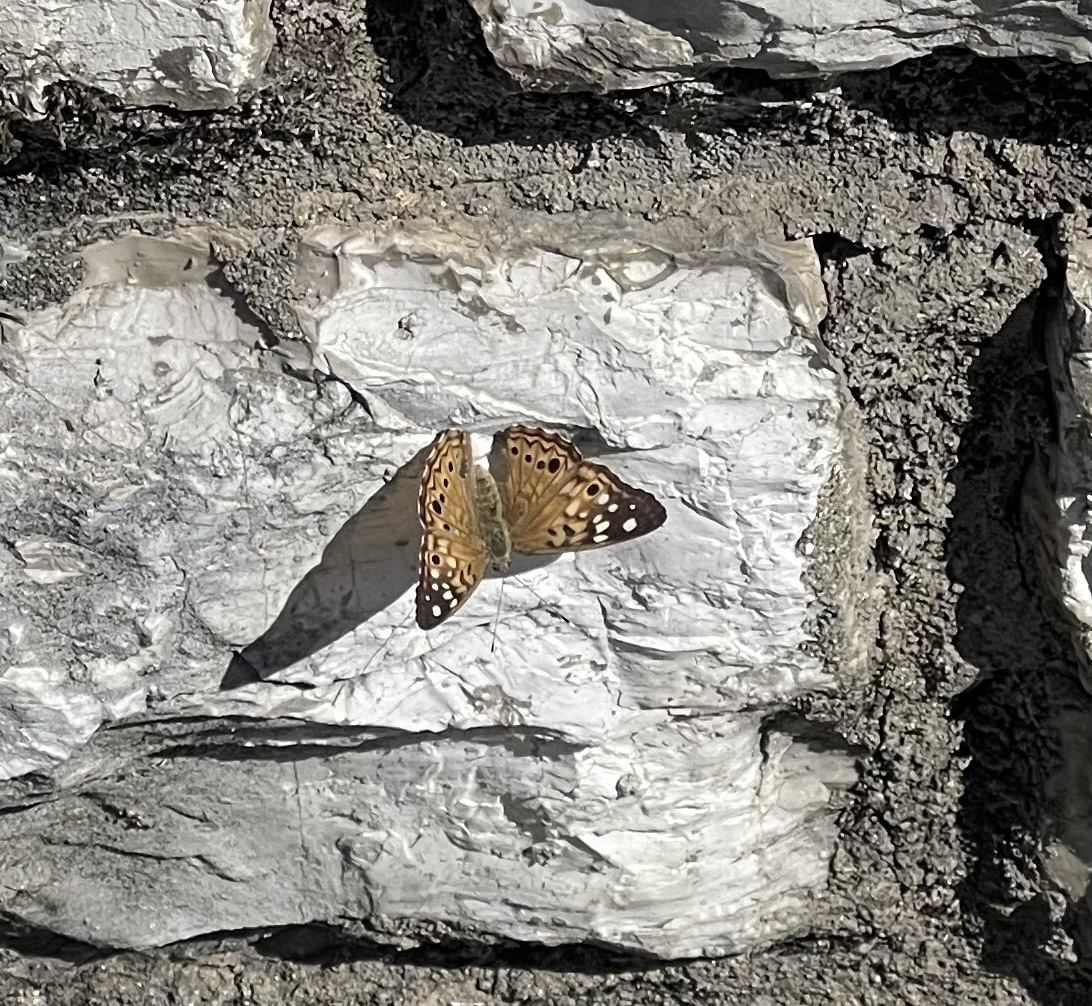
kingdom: Animalia
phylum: Arthropoda
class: Insecta
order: Lepidoptera
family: Nymphalidae
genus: Asterocampa
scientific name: Asterocampa celtis
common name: Hackberry emperor
